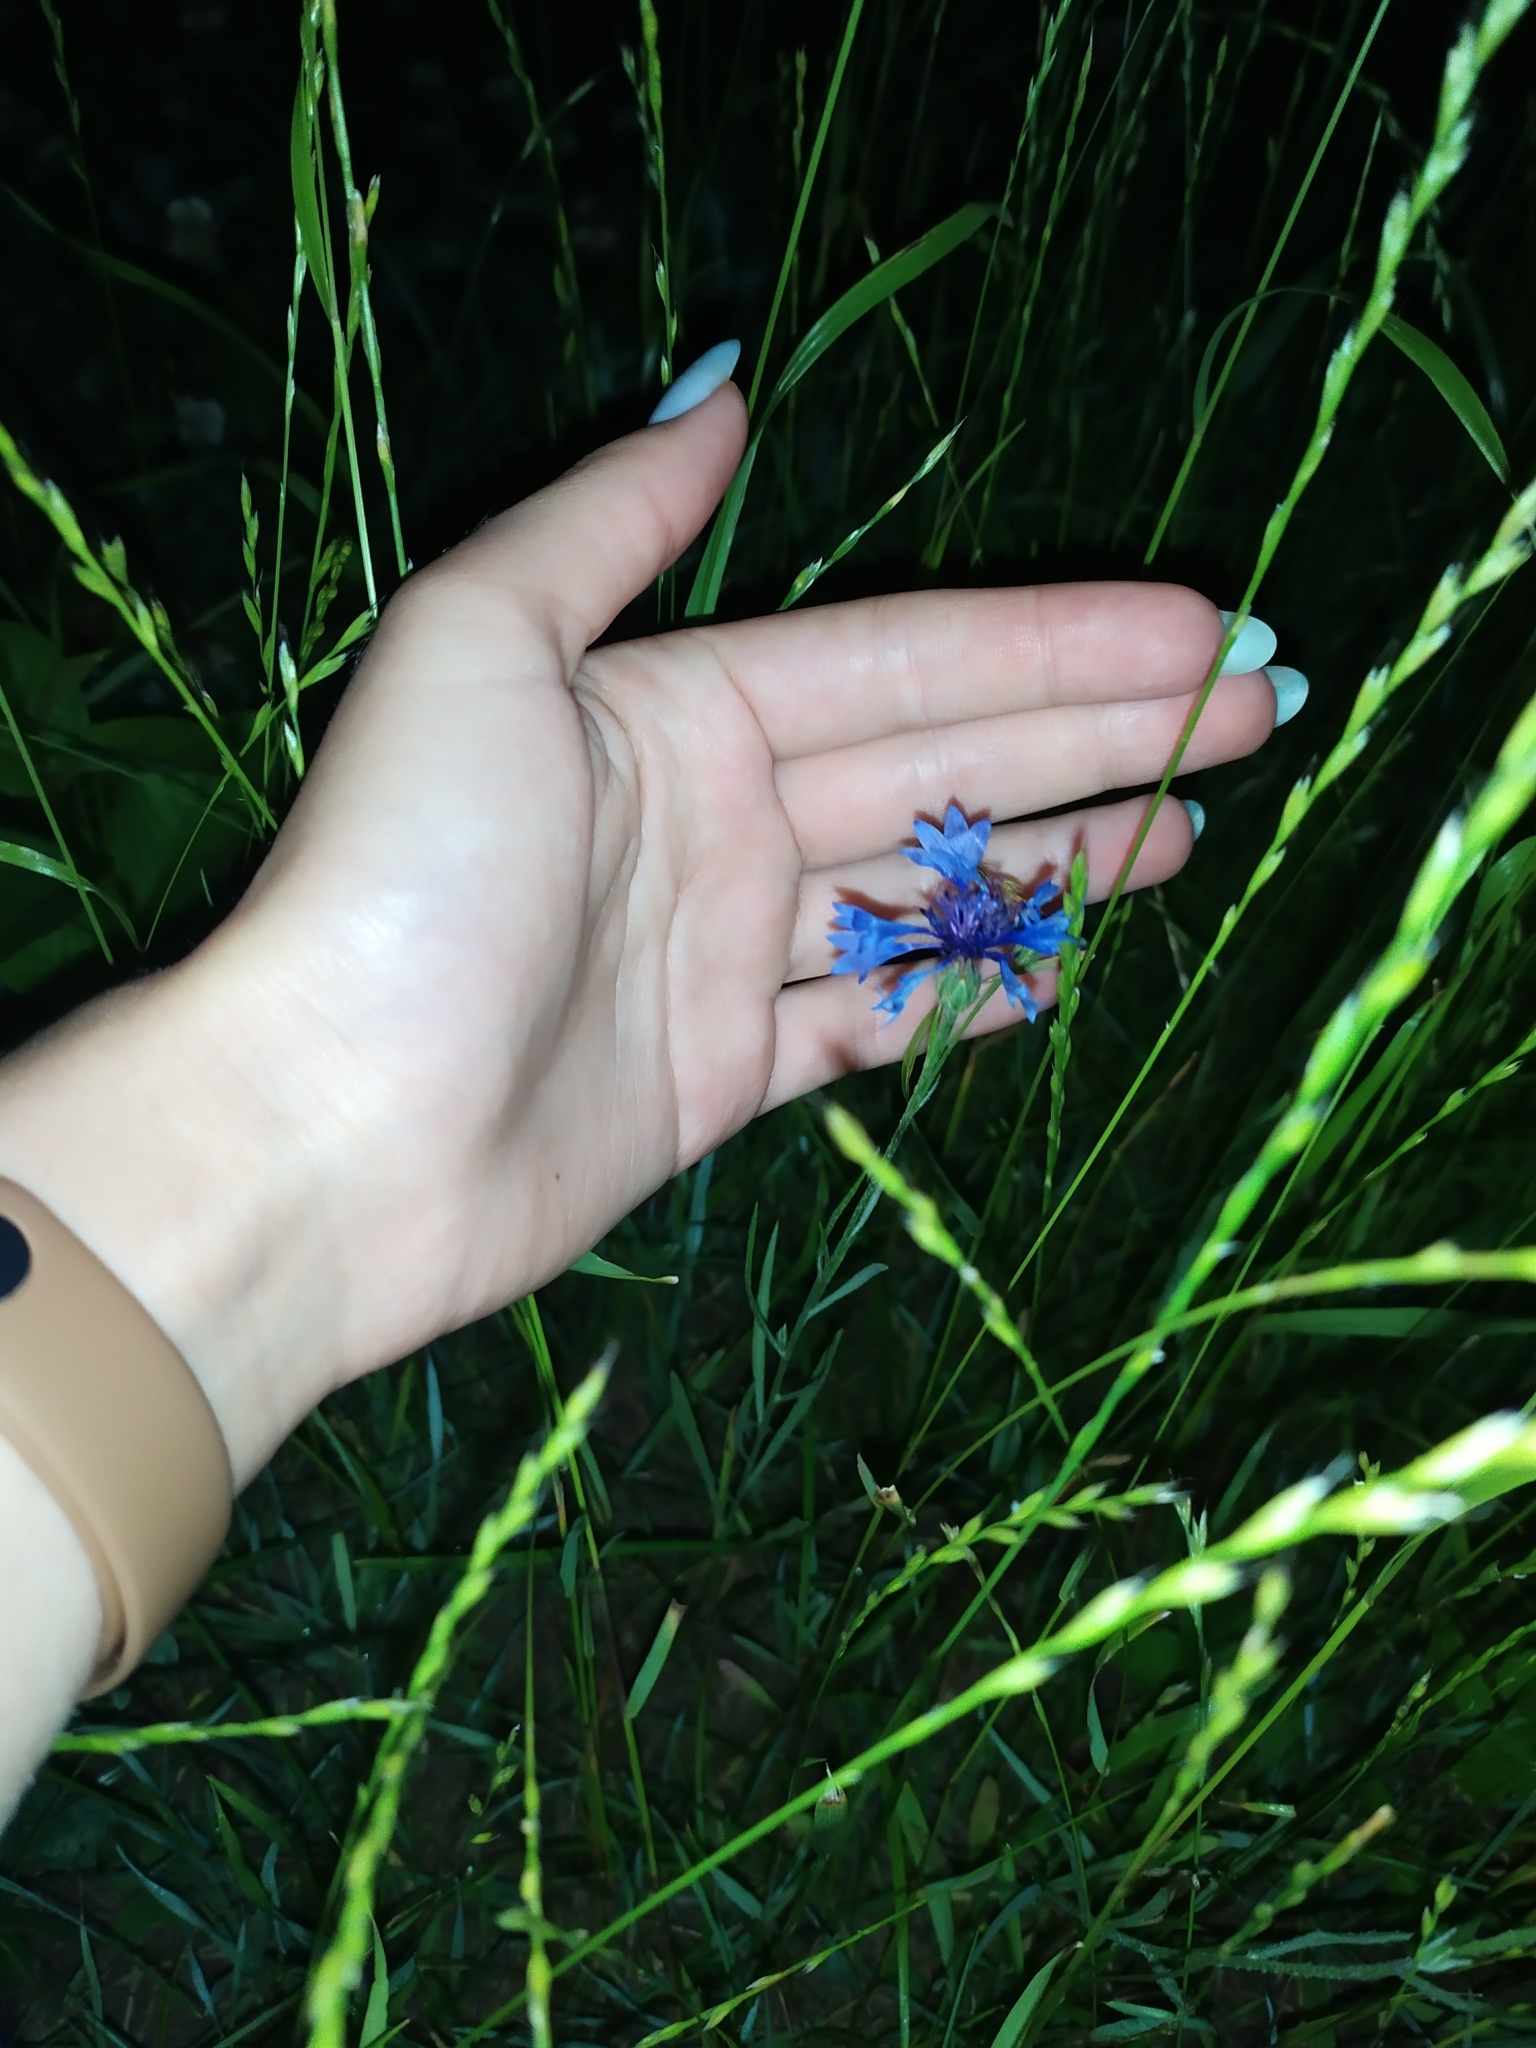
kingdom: Plantae
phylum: Tracheophyta
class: Magnoliopsida
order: Asterales
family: Asteraceae
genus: Centaurea
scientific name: Centaurea cyanus
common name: Cornflower
